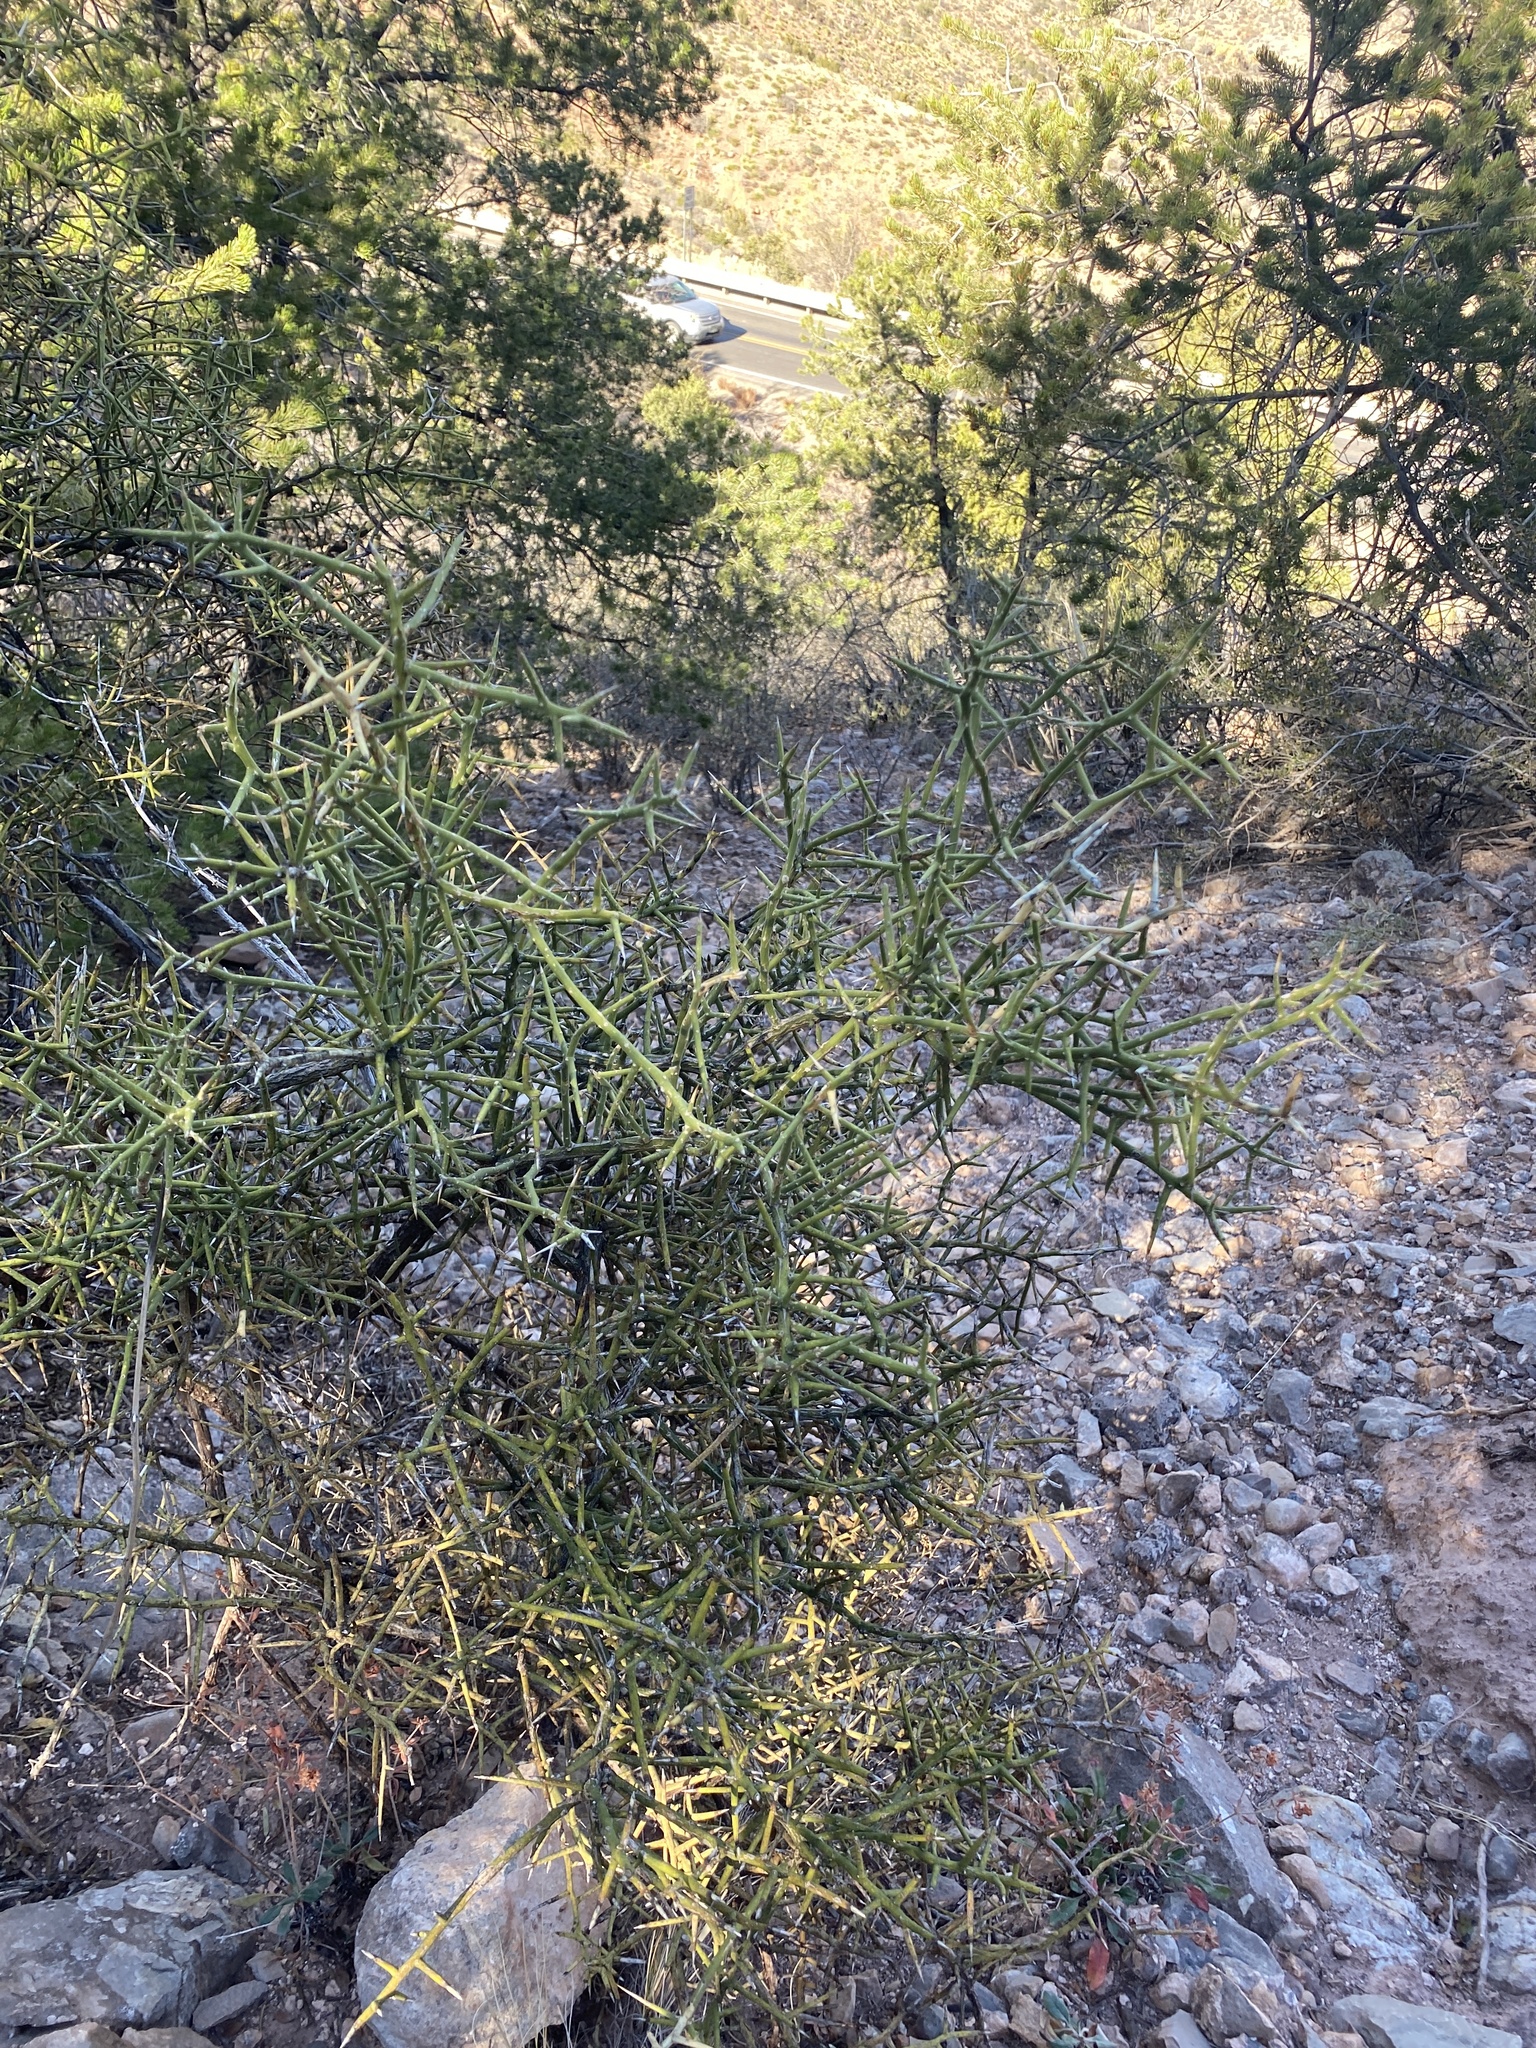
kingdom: Plantae
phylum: Tracheophyta
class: Magnoliopsida
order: Brassicales
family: Koeberliniaceae
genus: Koeberlinia
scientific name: Koeberlinia spinosa
